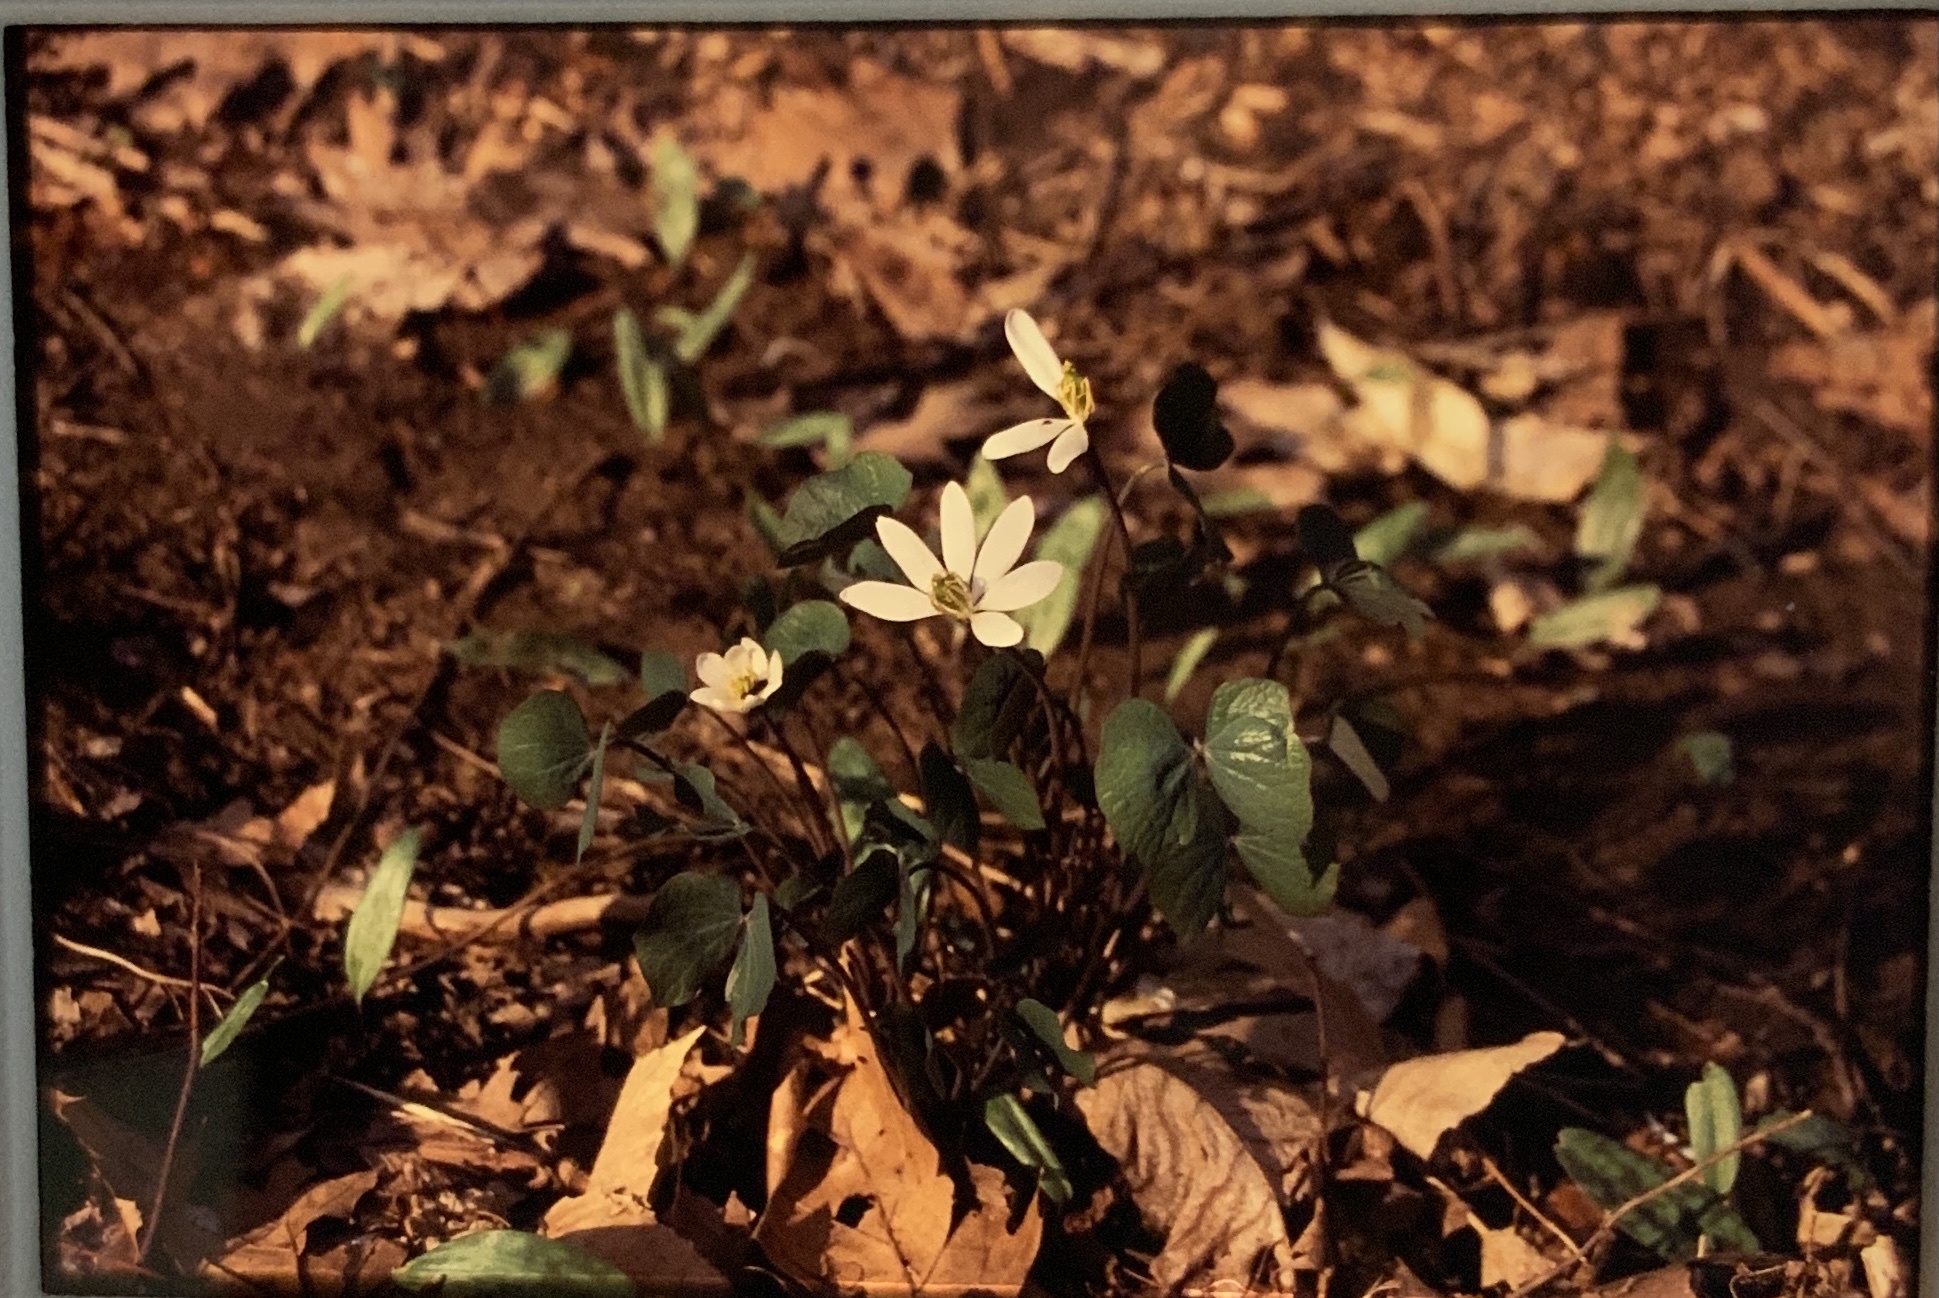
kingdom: Plantae
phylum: Tracheophyta
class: Magnoliopsida
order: Ranunculales
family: Berberidaceae
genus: Jeffersonia
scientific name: Jeffersonia diphylla
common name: Rheumatism-root
